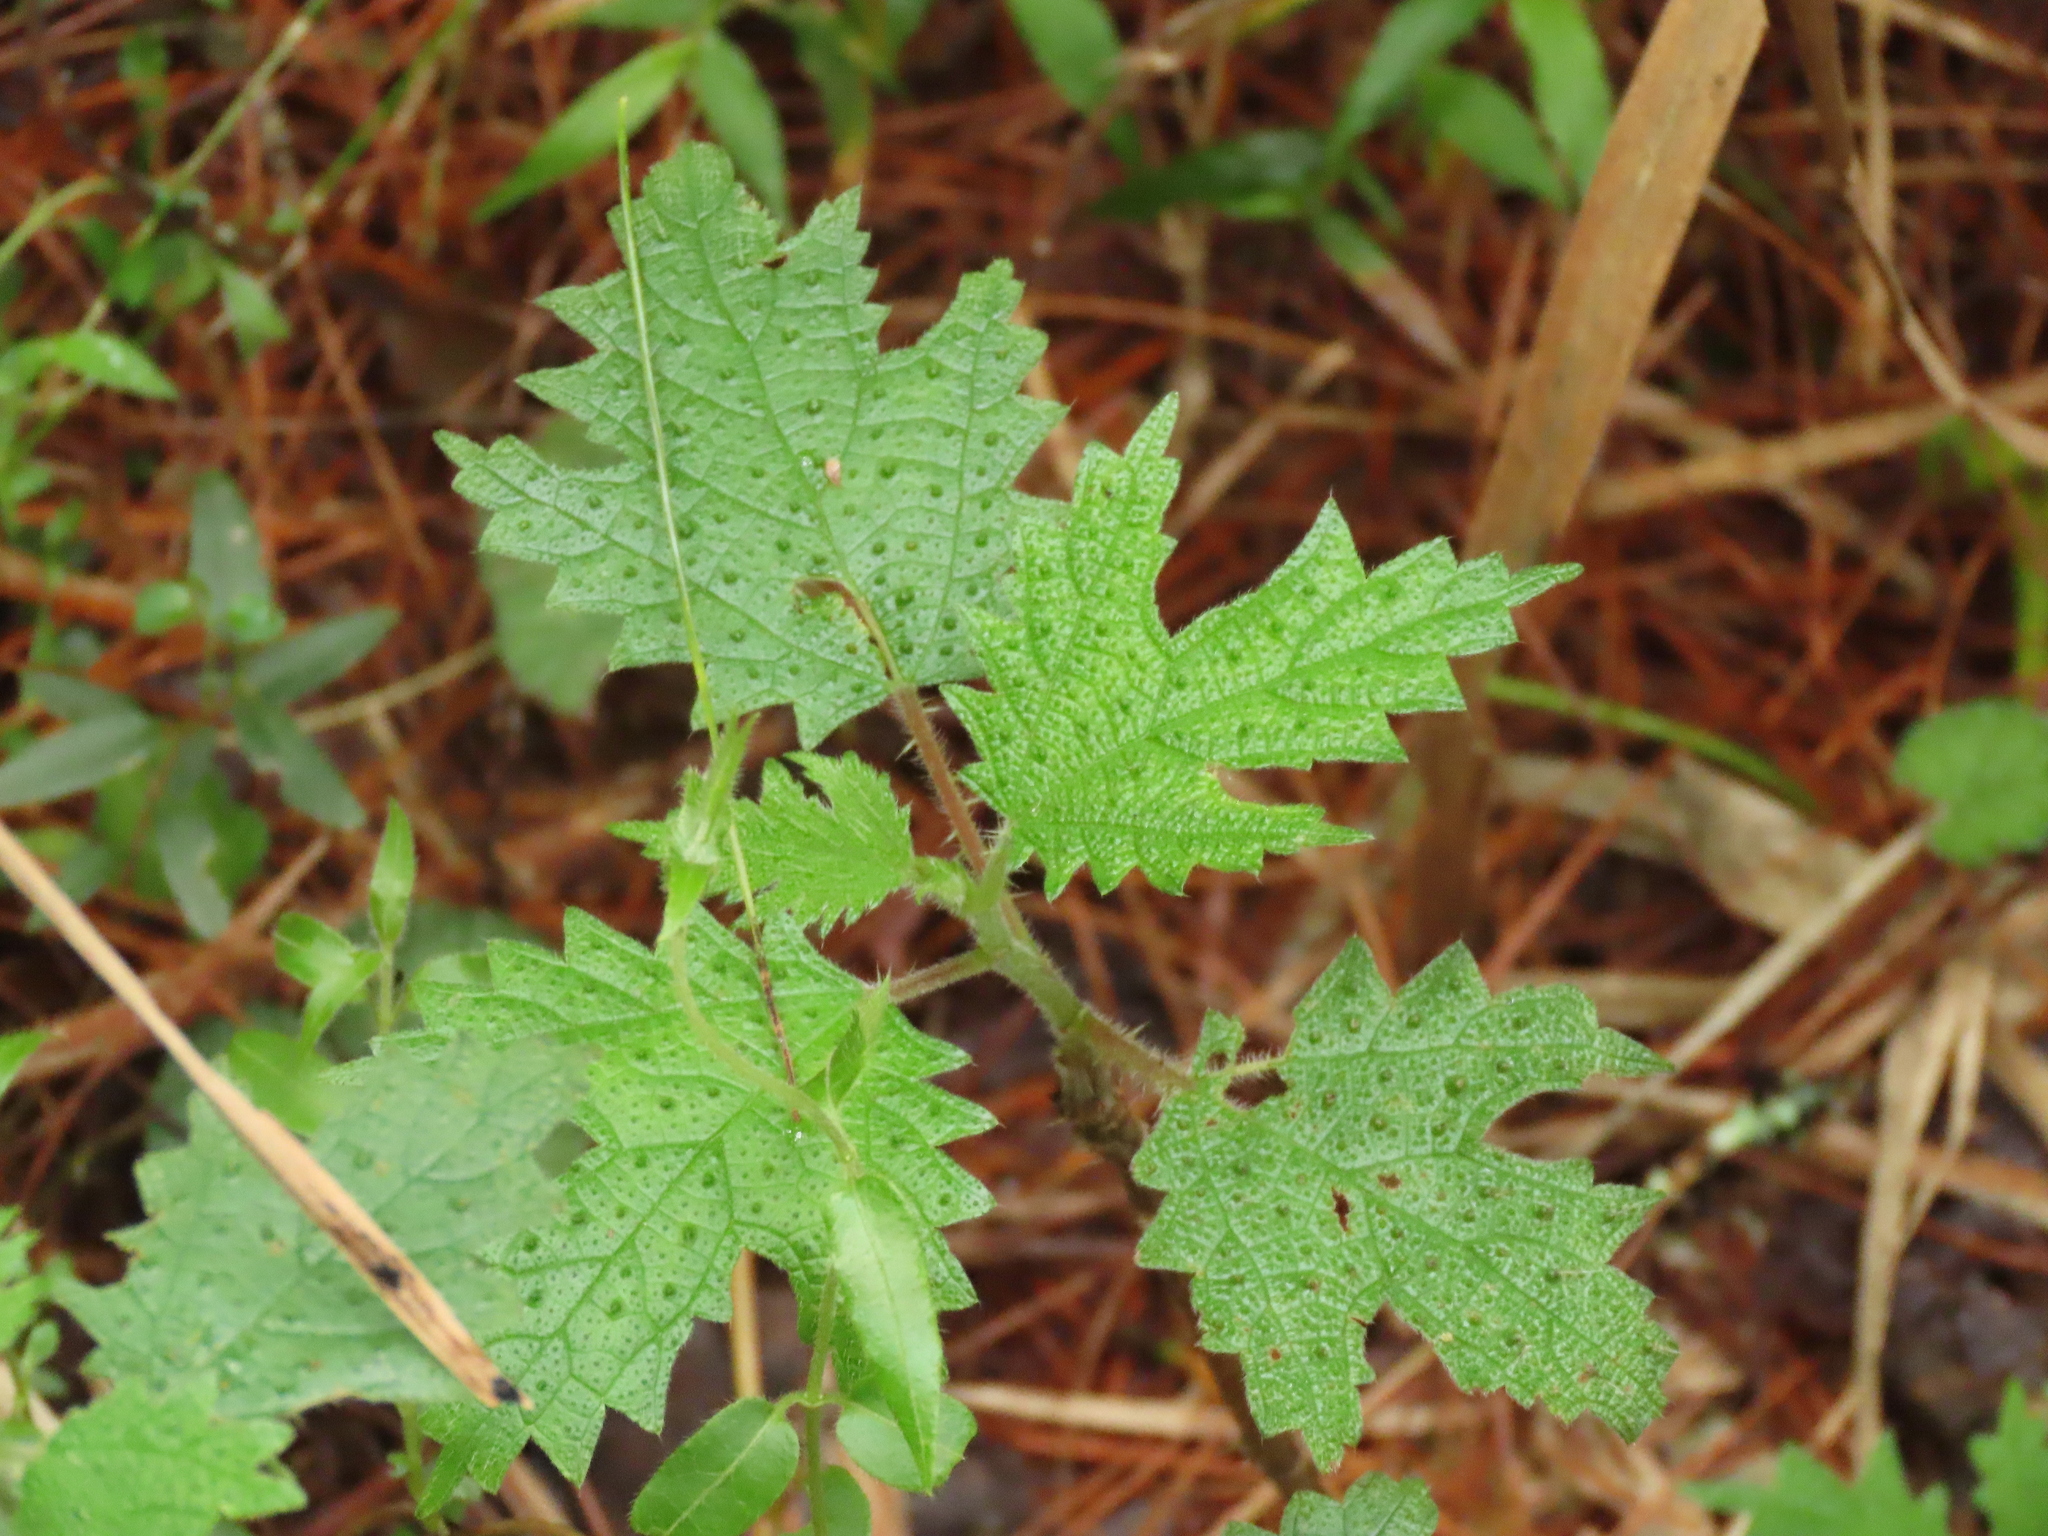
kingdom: Plantae
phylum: Tracheophyta
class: Magnoliopsida
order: Rosales
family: Urticaceae
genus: Girardinia
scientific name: Girardinia diversifolia
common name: Himalayan-nettle
